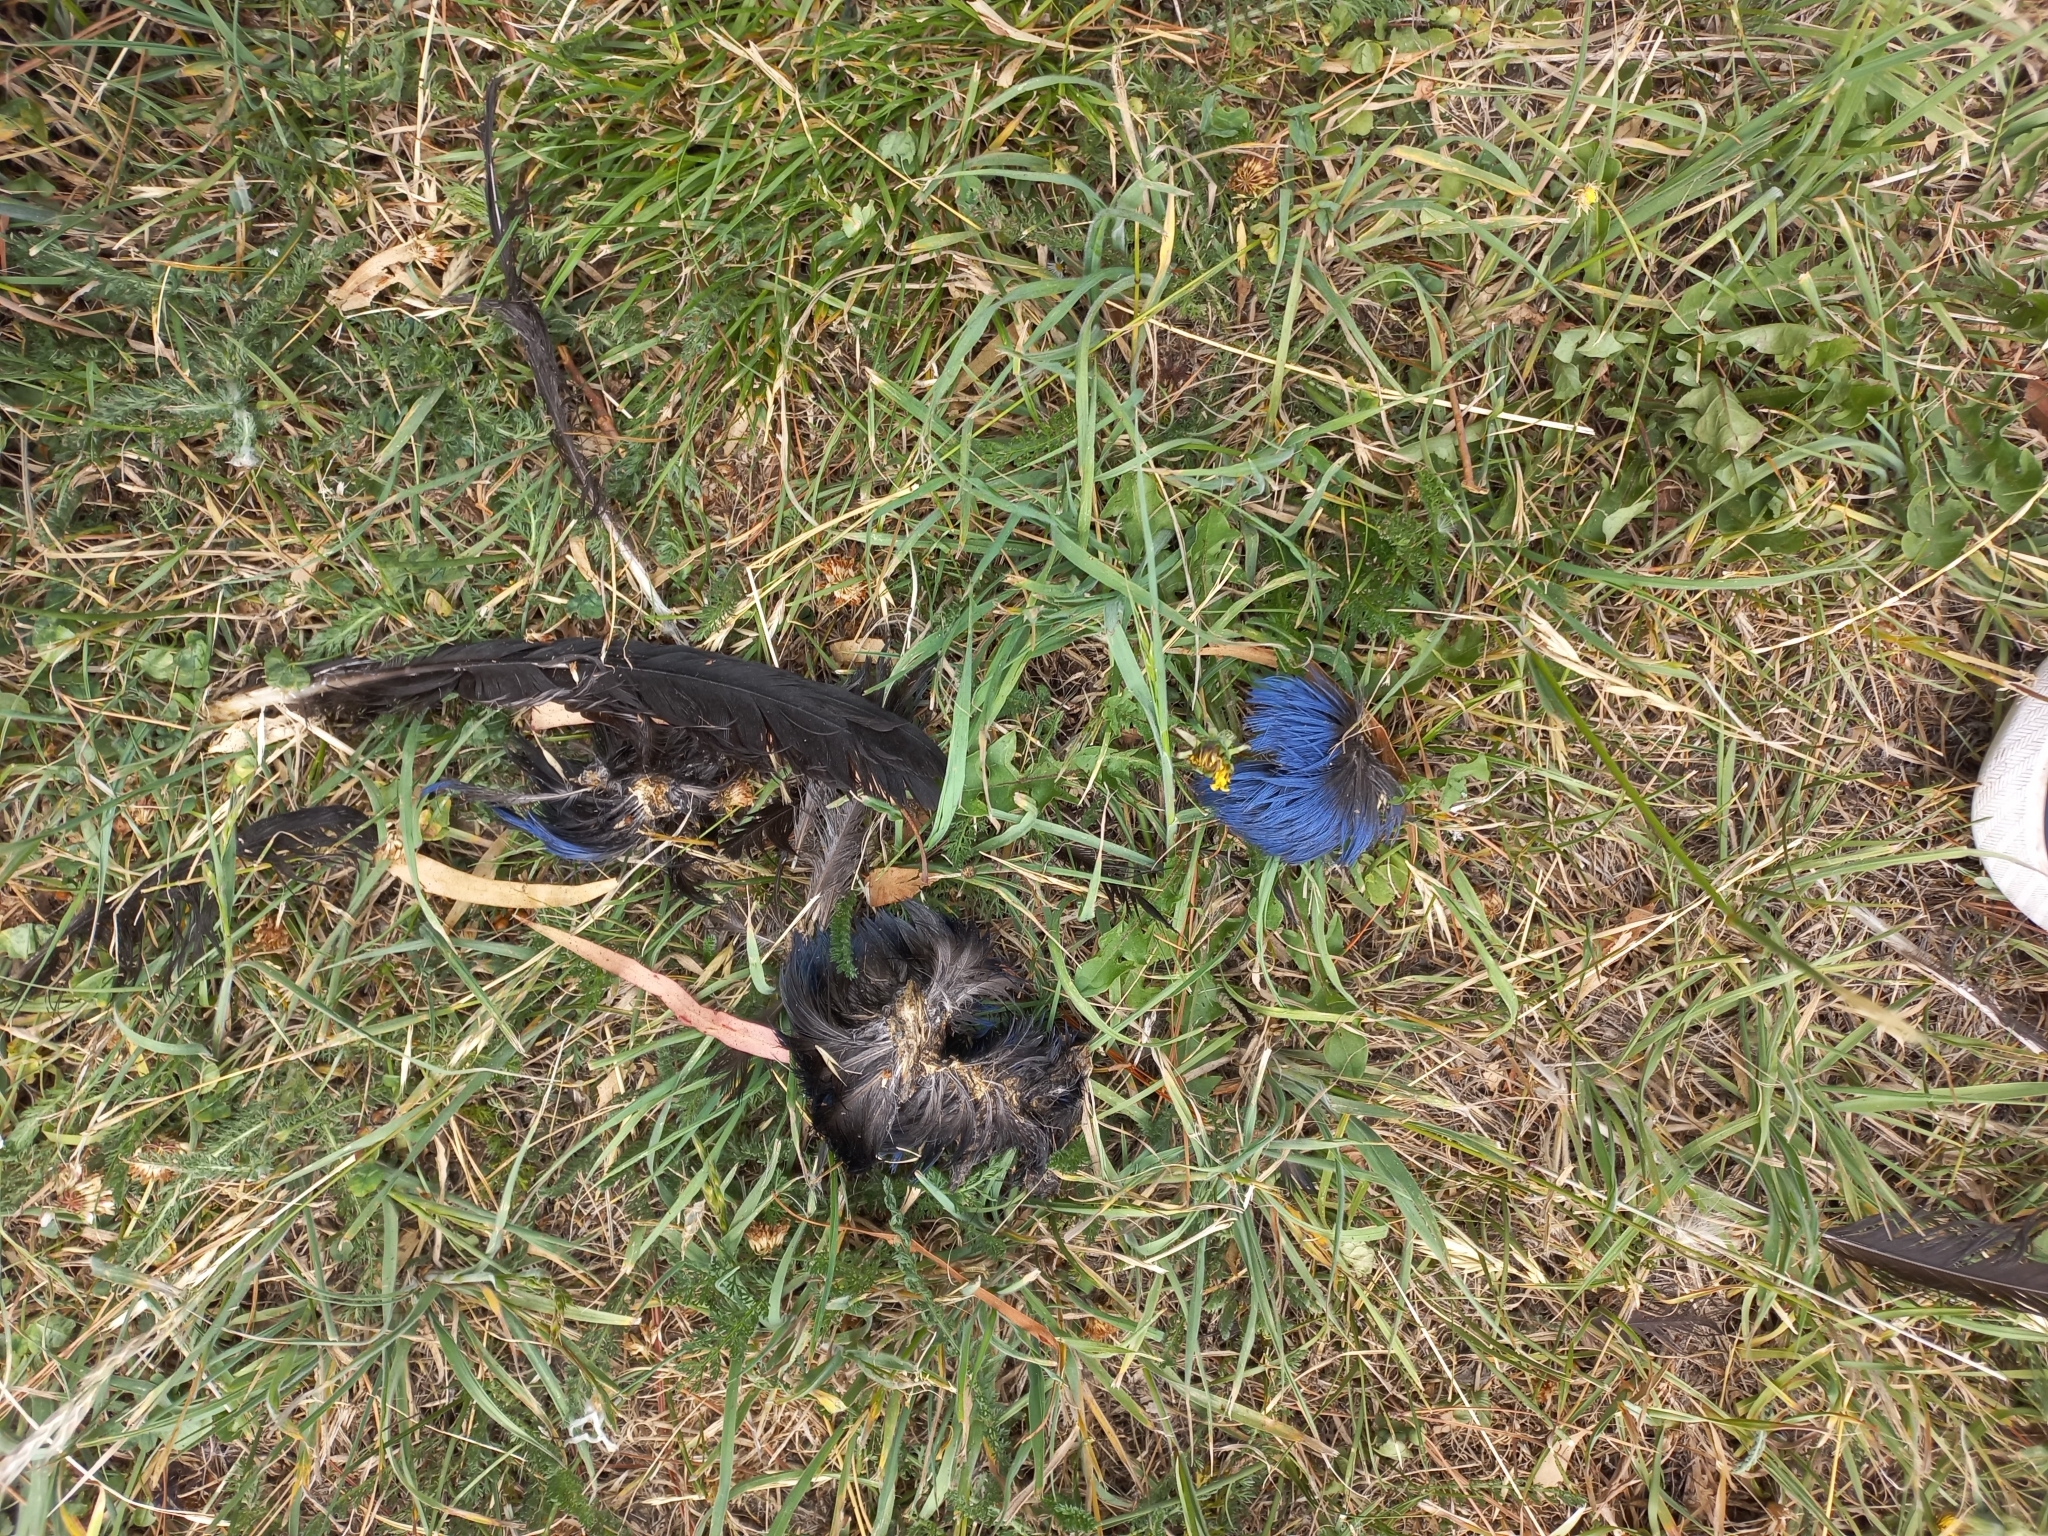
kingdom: Animalia
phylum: Chordata
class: Aves
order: Gruiformes
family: Rallidae
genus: Porphyrio
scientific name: Porphyrio melanotus
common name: Australasian swamphen
